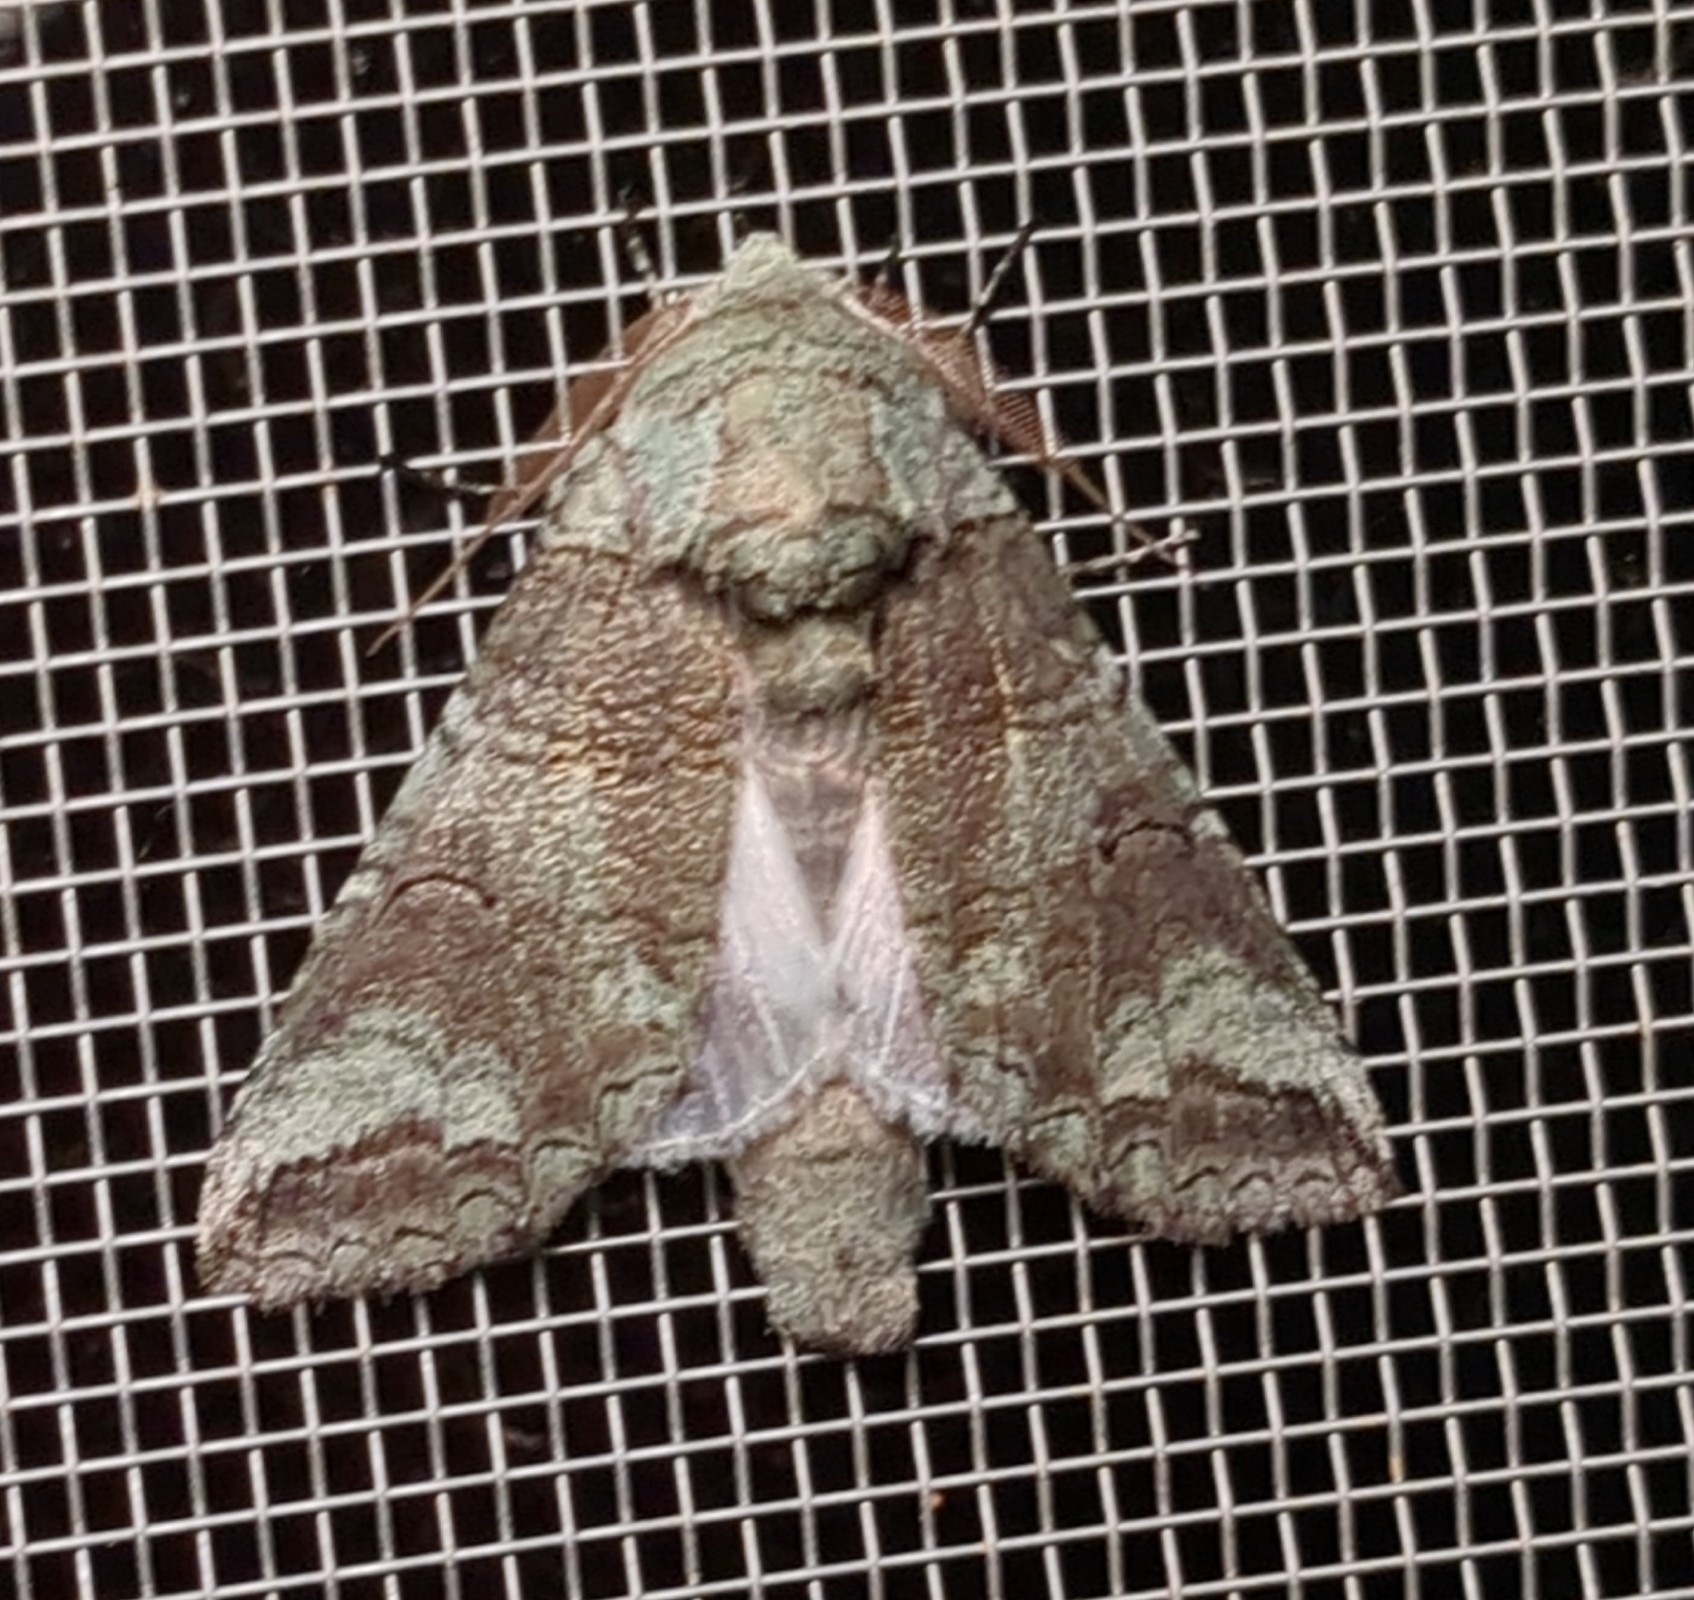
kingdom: Animalia
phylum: Arthropoda
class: Insecta
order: Lepidoptera
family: Notodontidae
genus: Heterocampa
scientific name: Heterocampa astartoides
